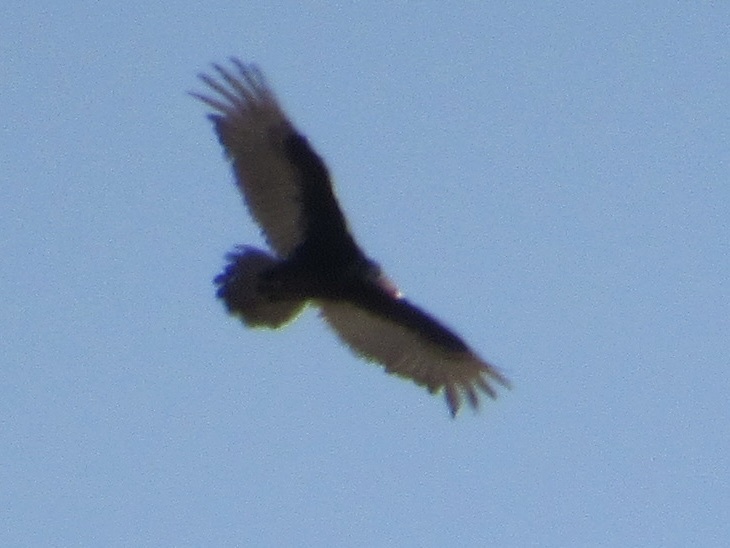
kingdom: Animalia
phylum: Chordata
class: Aves
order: Accipitriformes
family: Cathartidae
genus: Cathartes
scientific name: Cathartes aura
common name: Turkey vulture
